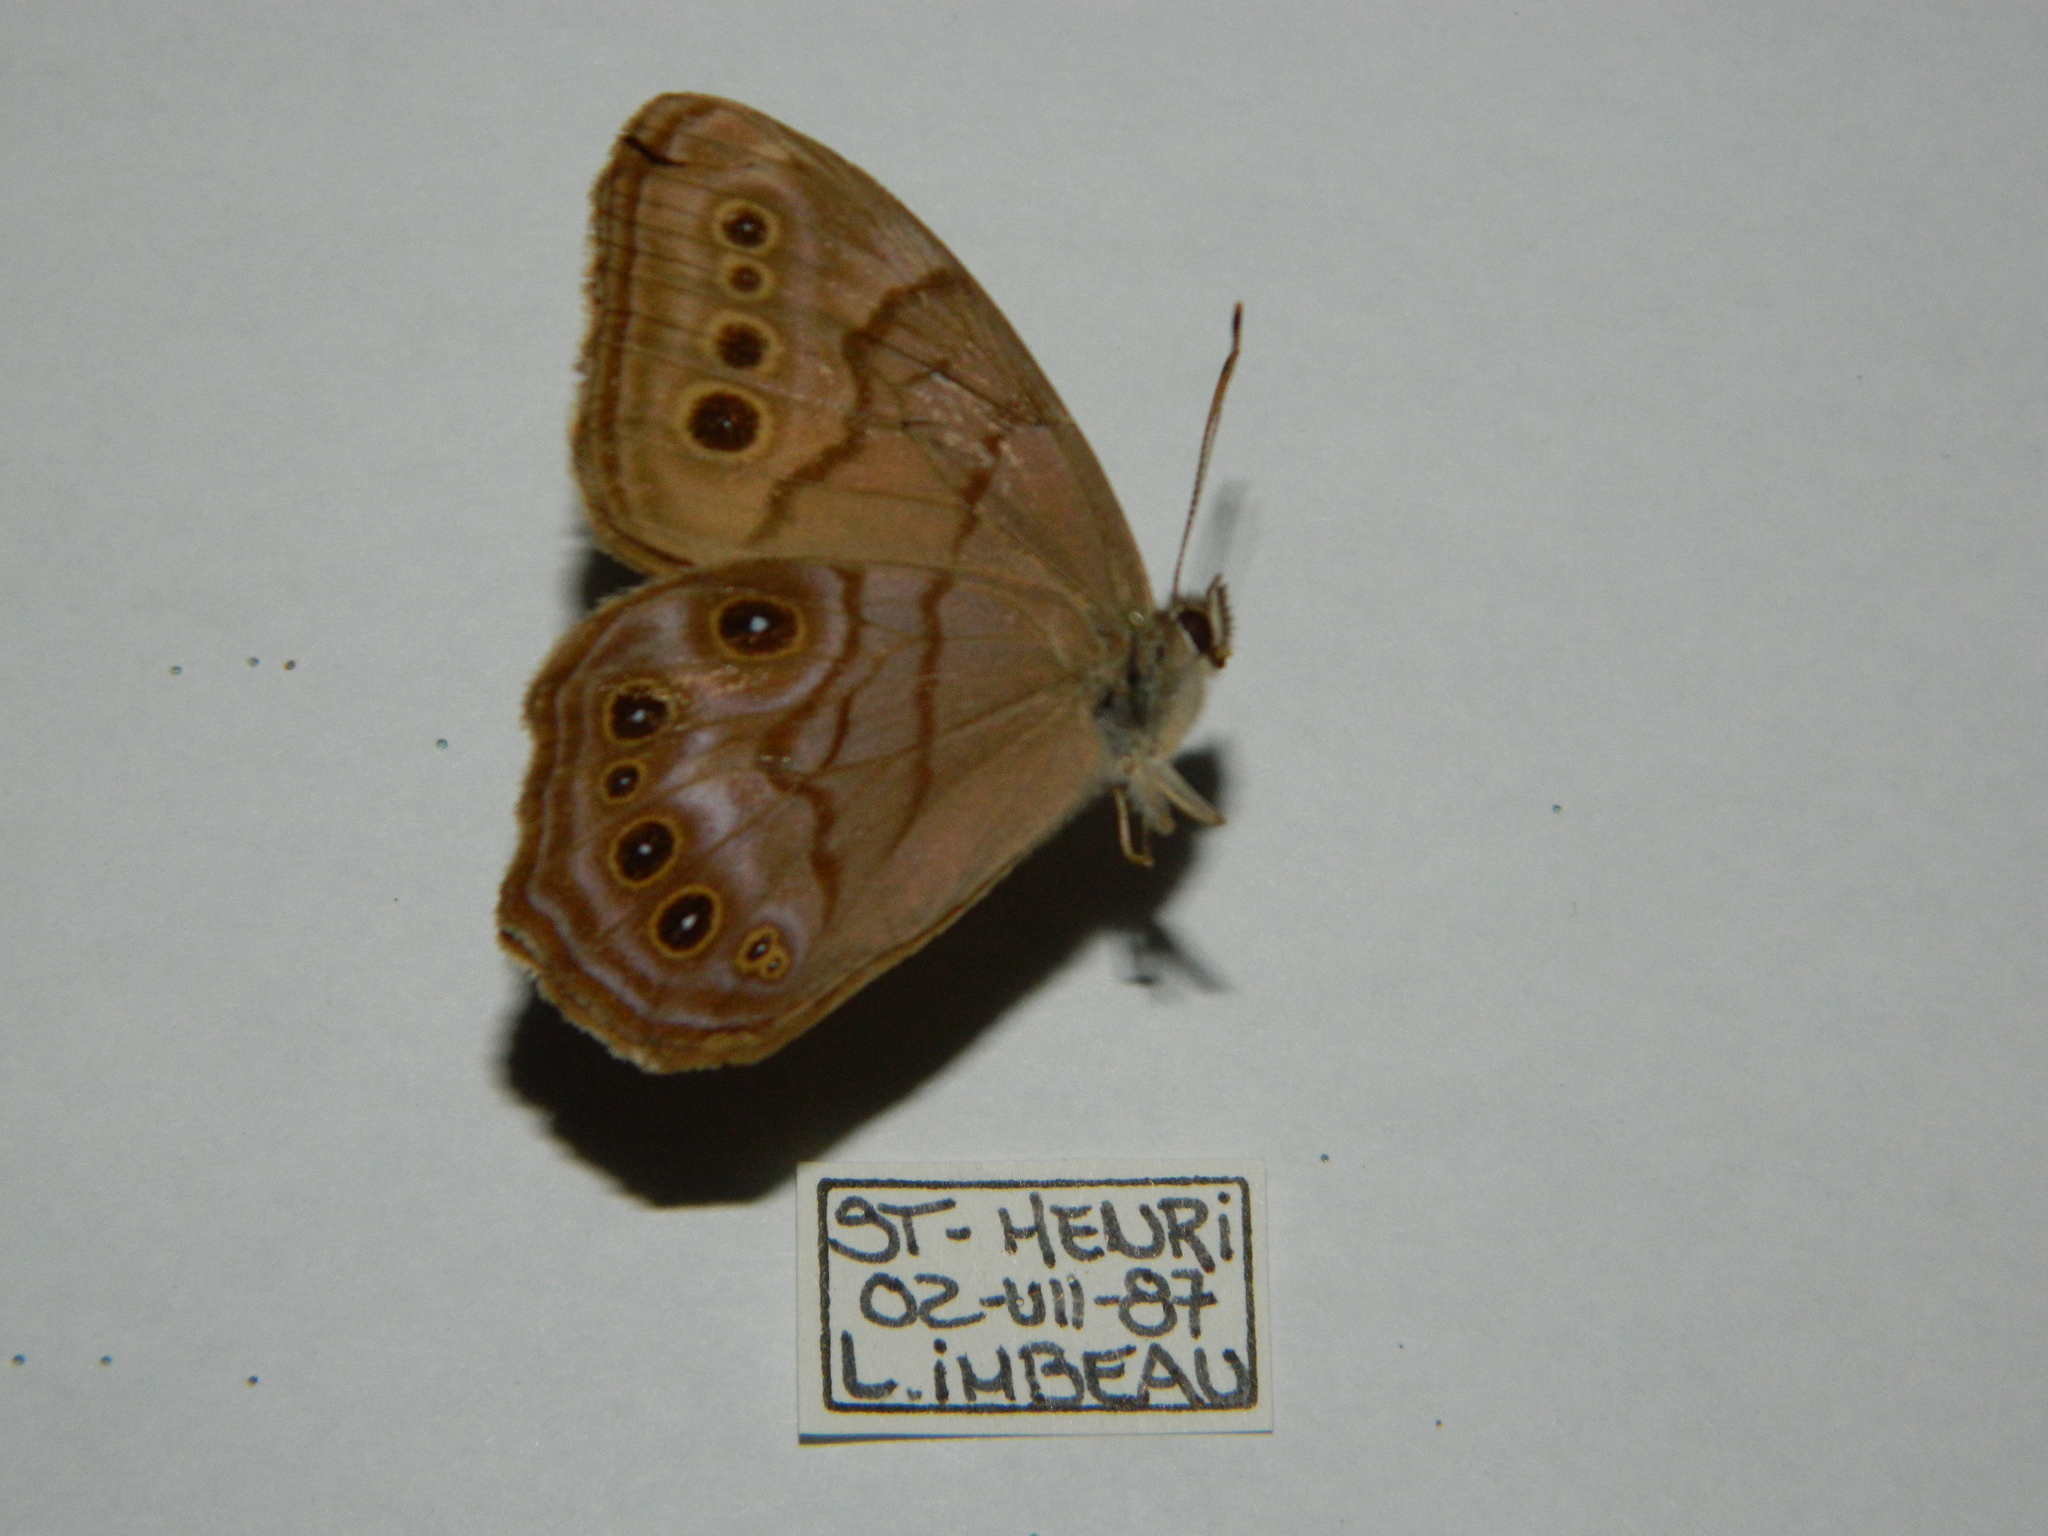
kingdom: Animalia
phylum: Arthropoda
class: Insecta
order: Lepidoptera
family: Nymphalidae
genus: Lethe
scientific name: Lethe anthedon
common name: Northern pearly-eye
